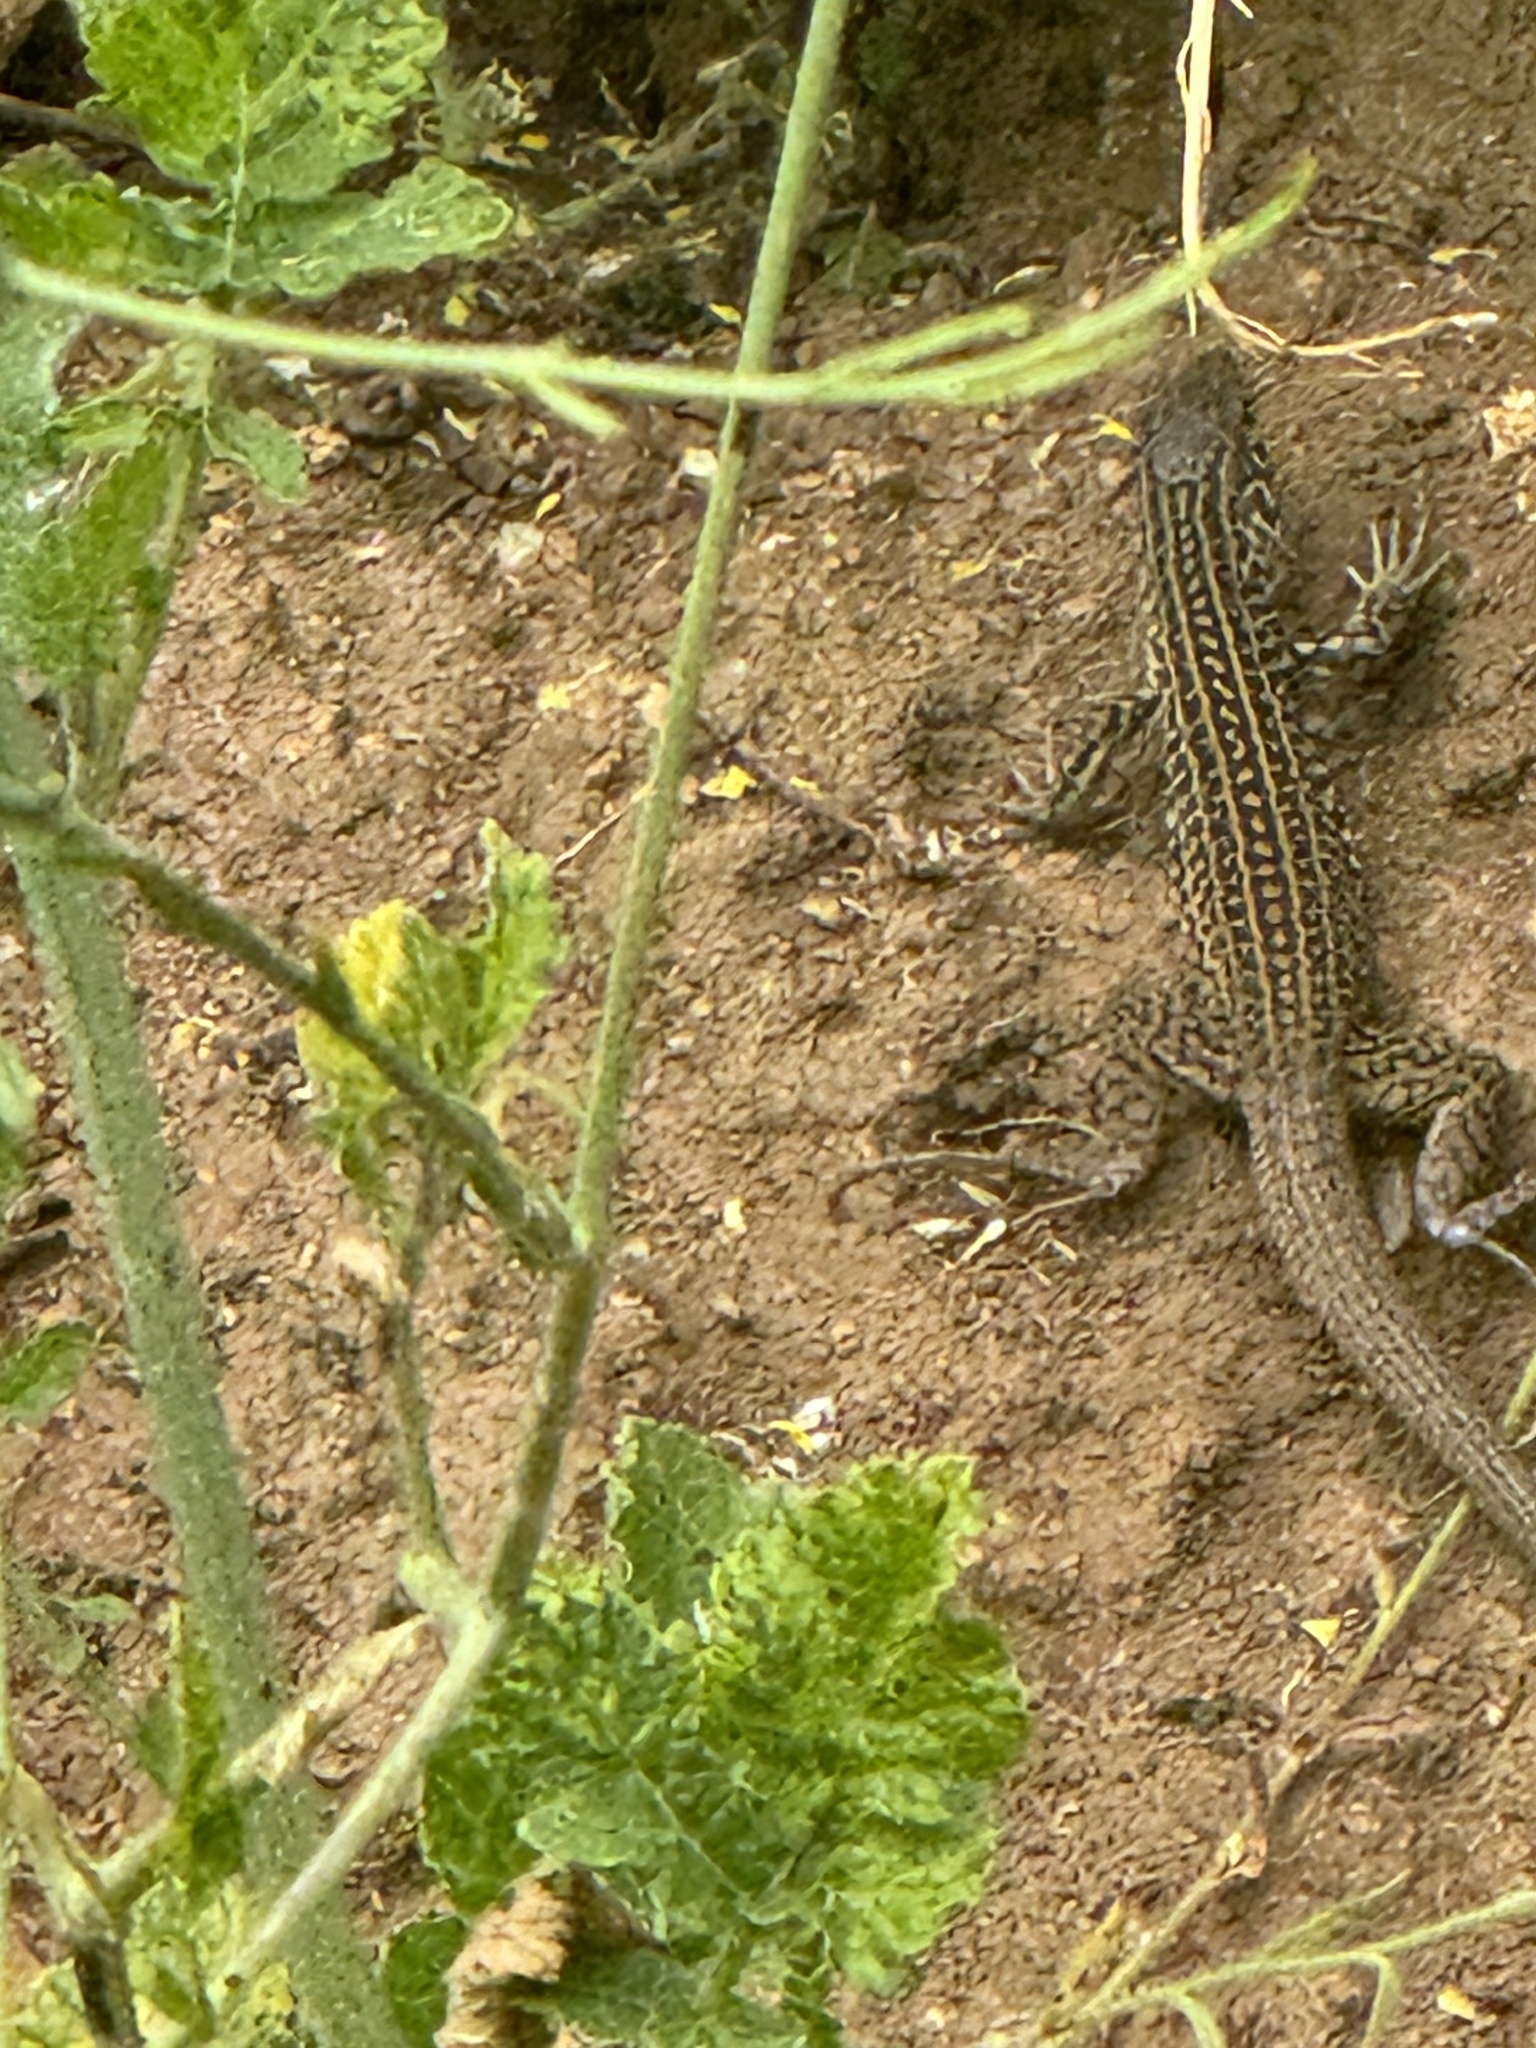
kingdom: Animalia
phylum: Chordata
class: Squamata
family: Teiidae
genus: Aspidoscelis
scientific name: Aspidoscelis tigris
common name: Tiger whiptail
